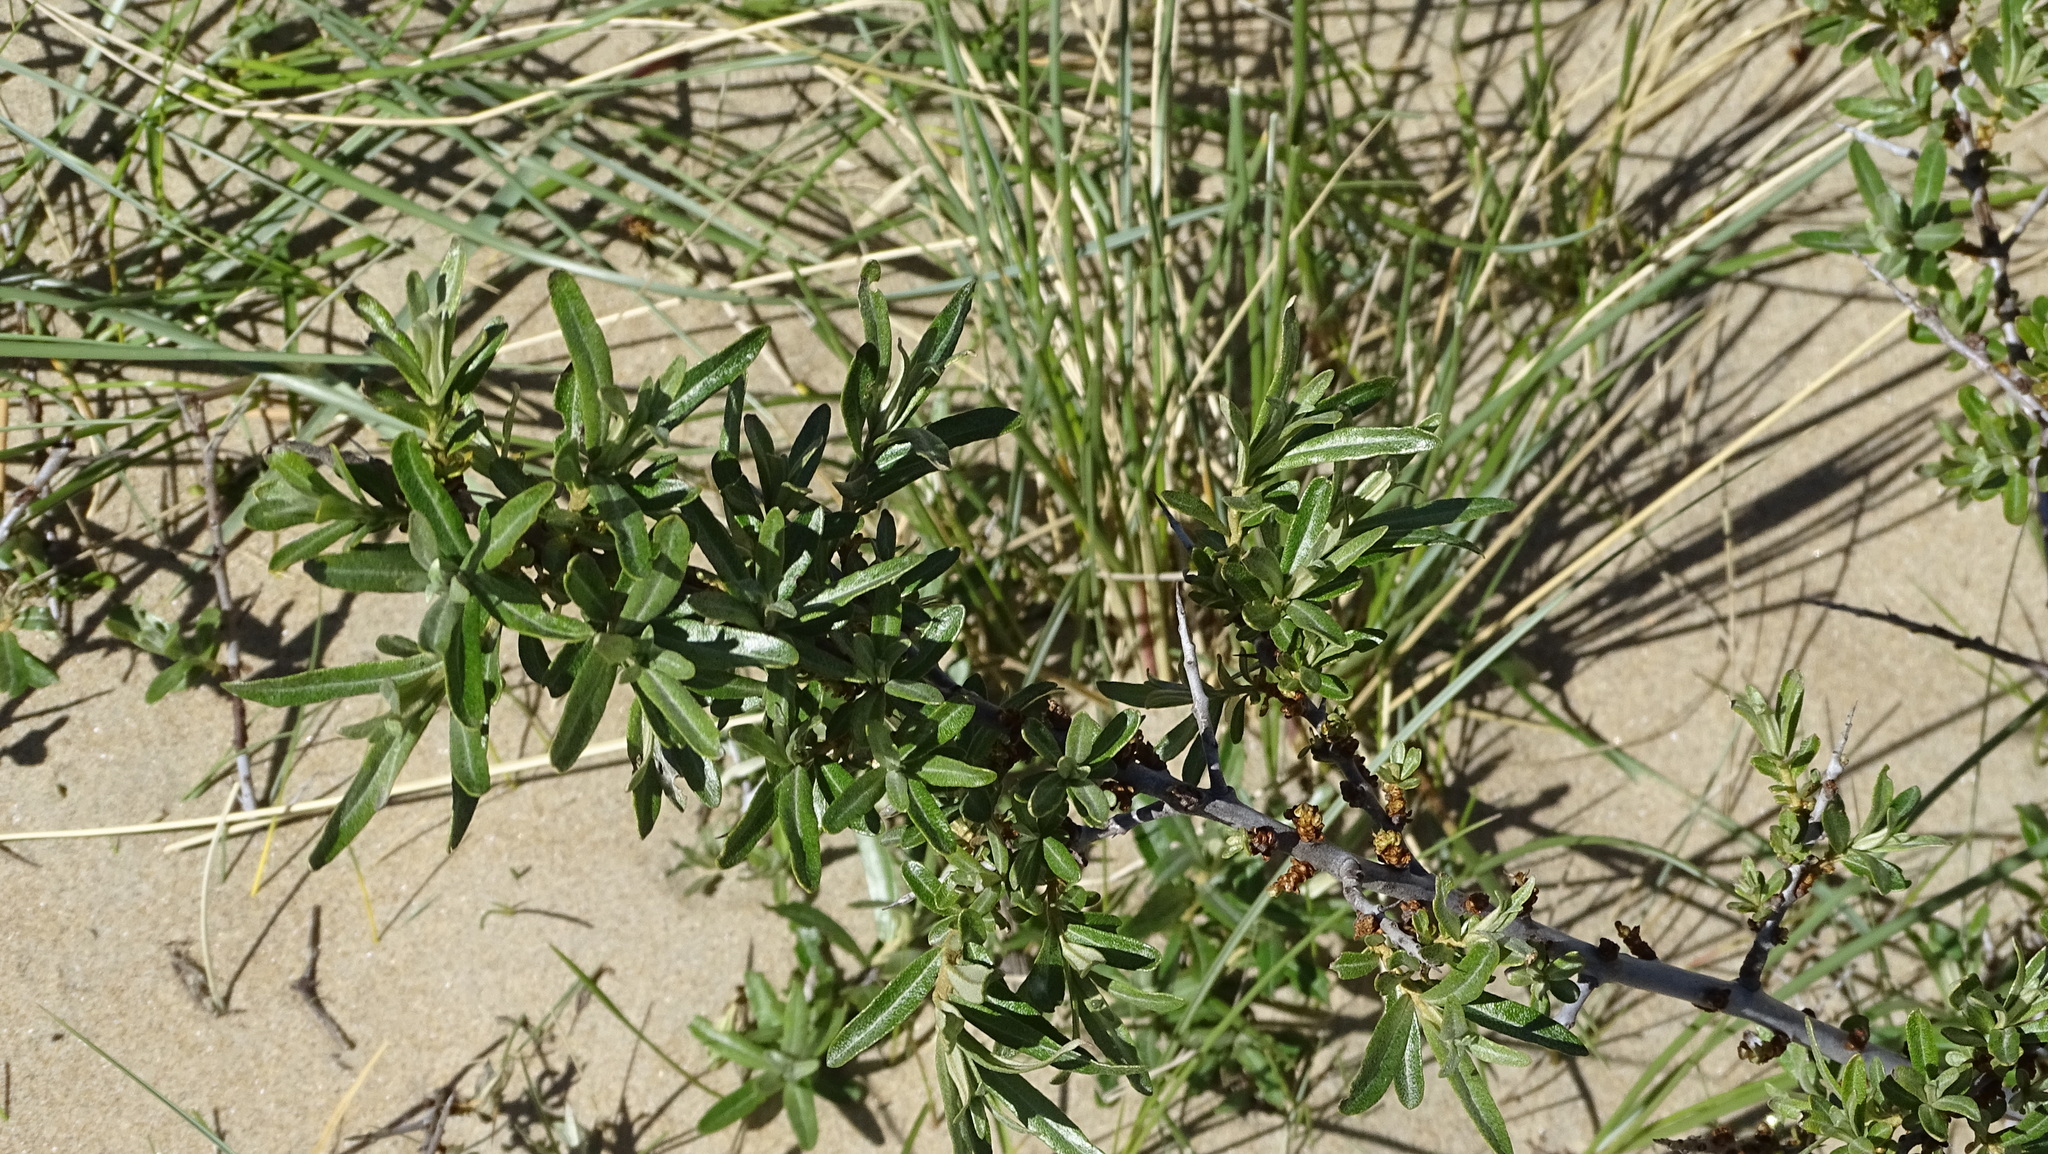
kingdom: Plantae
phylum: Tracheophyta
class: Magnoliopsida
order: Rosales
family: Elaeagnaceae
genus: Hippophae
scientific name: Hippophae rhamnoides
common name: Sea-buckthorn
